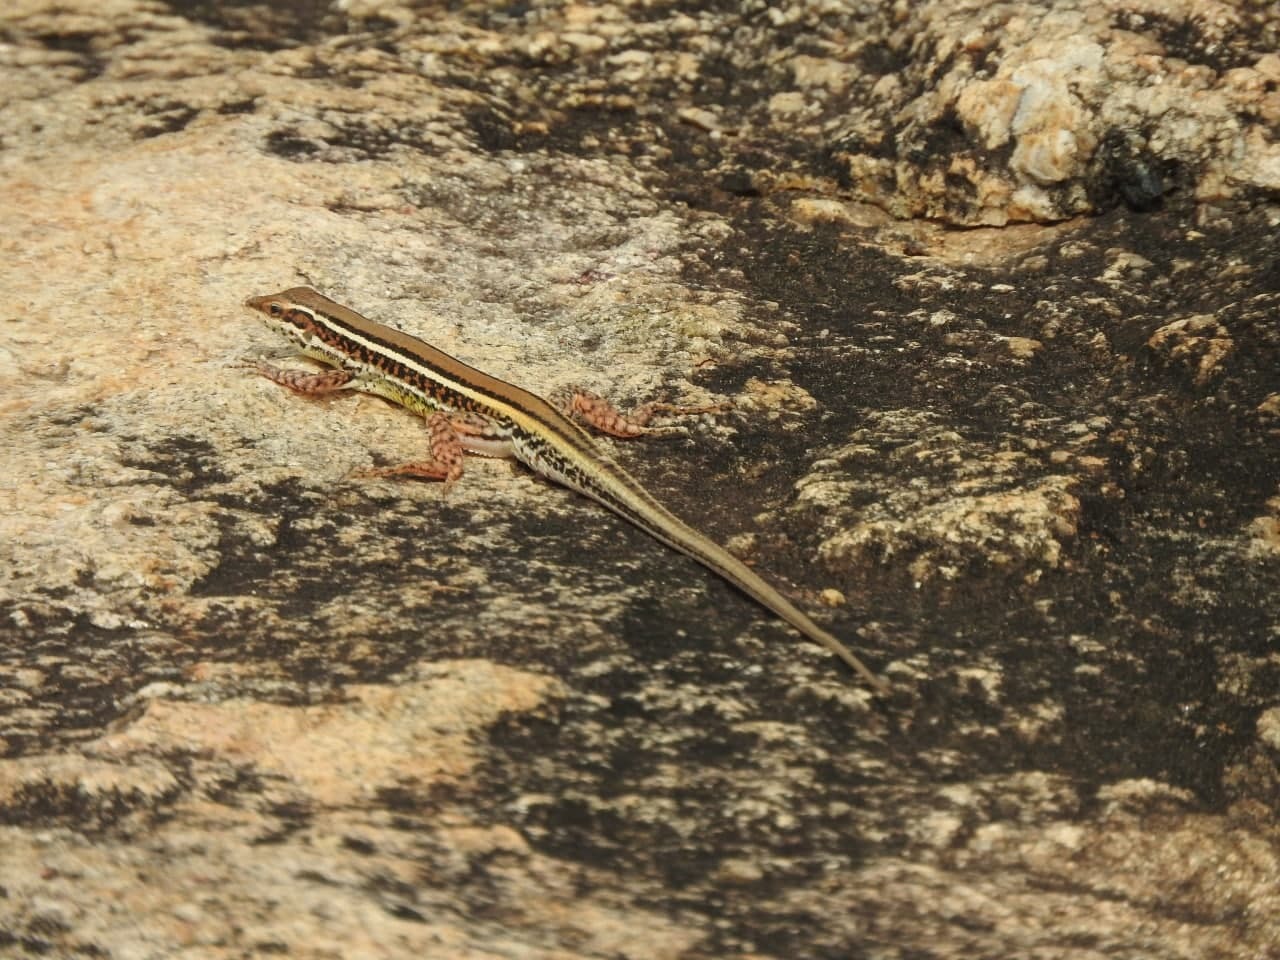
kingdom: Animalia
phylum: Chordata
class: Squamata
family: Lacertidae
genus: Ophisops
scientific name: Ophisops leschenaultii
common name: Leschenault's cabrita
